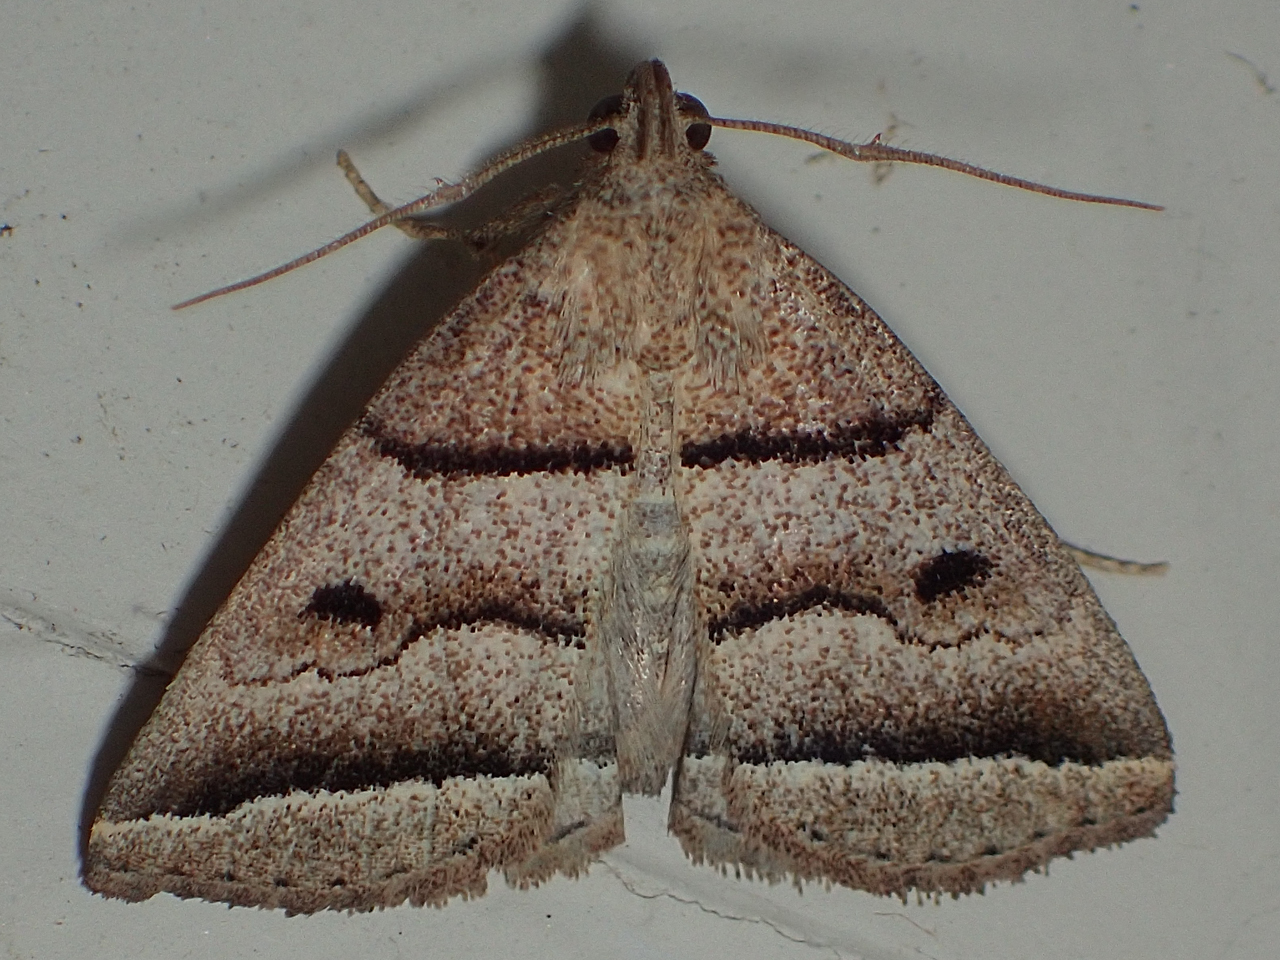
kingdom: Animalia
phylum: Arthropoda
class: Insecta
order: Lepidoptera
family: Erebidae
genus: Zanclognatha
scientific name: Zanclognatha atrilineella
